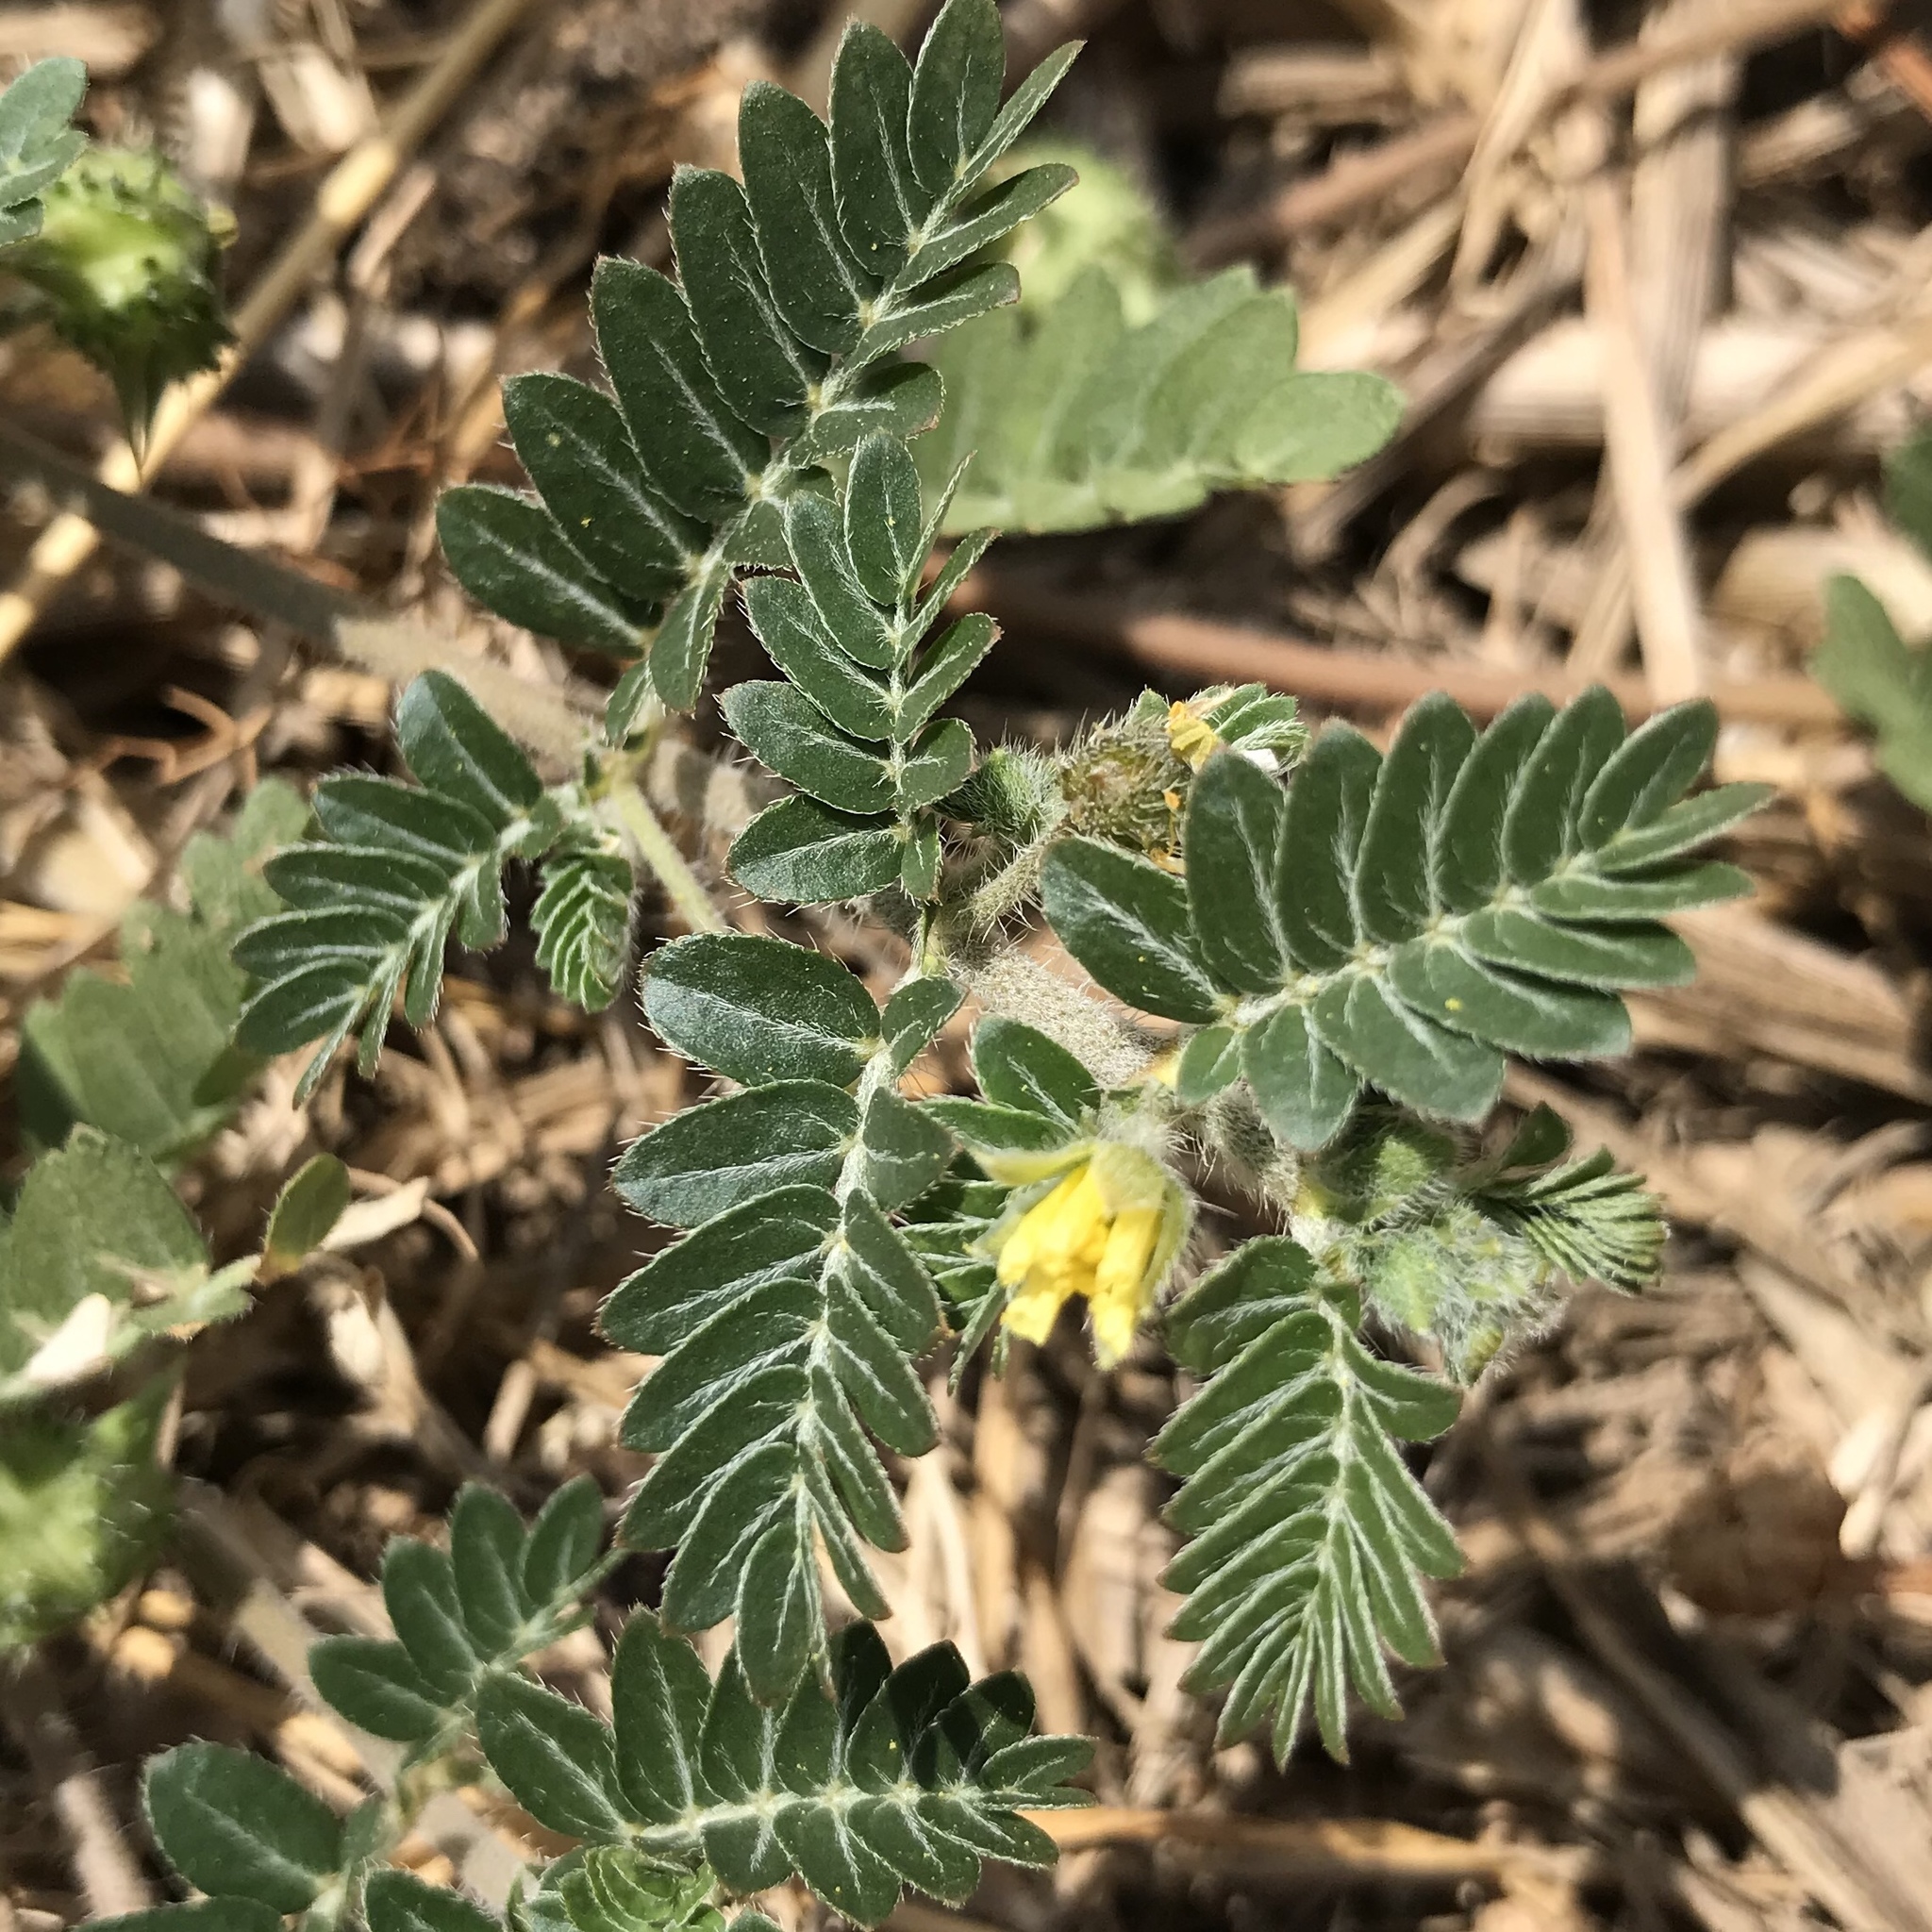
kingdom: Plantae
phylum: Tracheophyta
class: Magnoliopsida
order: Zygophyllales
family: Zygophyllaceae
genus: Tribulus
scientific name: Tribulus terrestris
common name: Puncturevine
